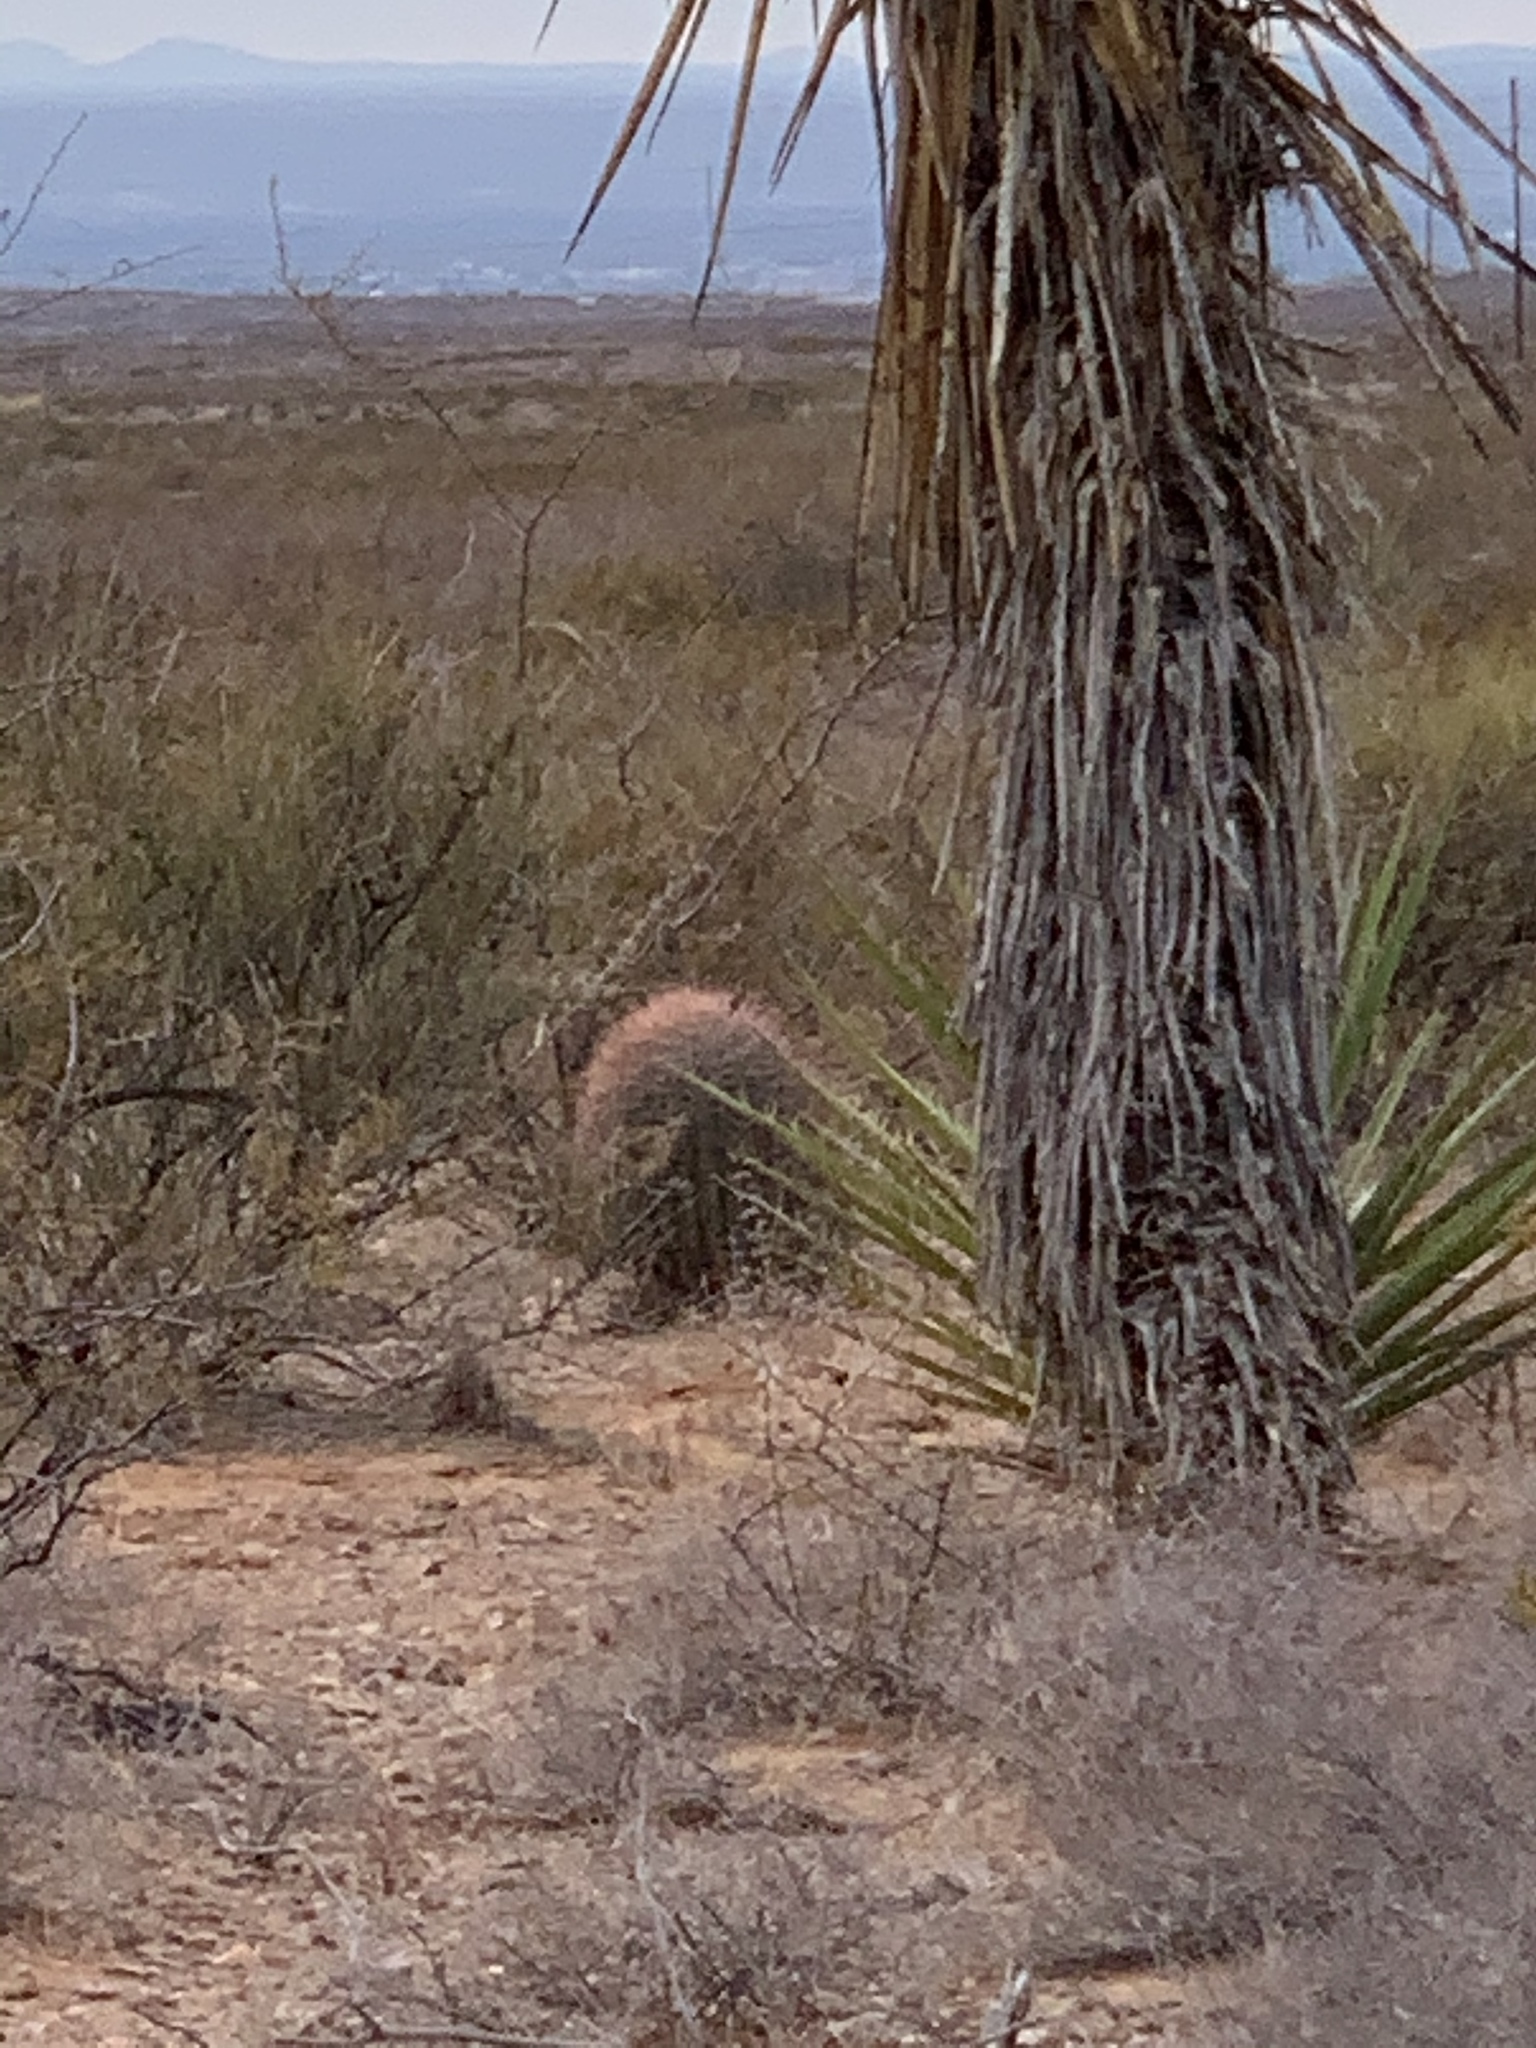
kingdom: Plantae
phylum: Tracheophyta
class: Magnoliopsida
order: Caryophyllales
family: Cactaceae
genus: Ferocactus
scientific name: Ferocactus wislizeni
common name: Candy barrel cactus
